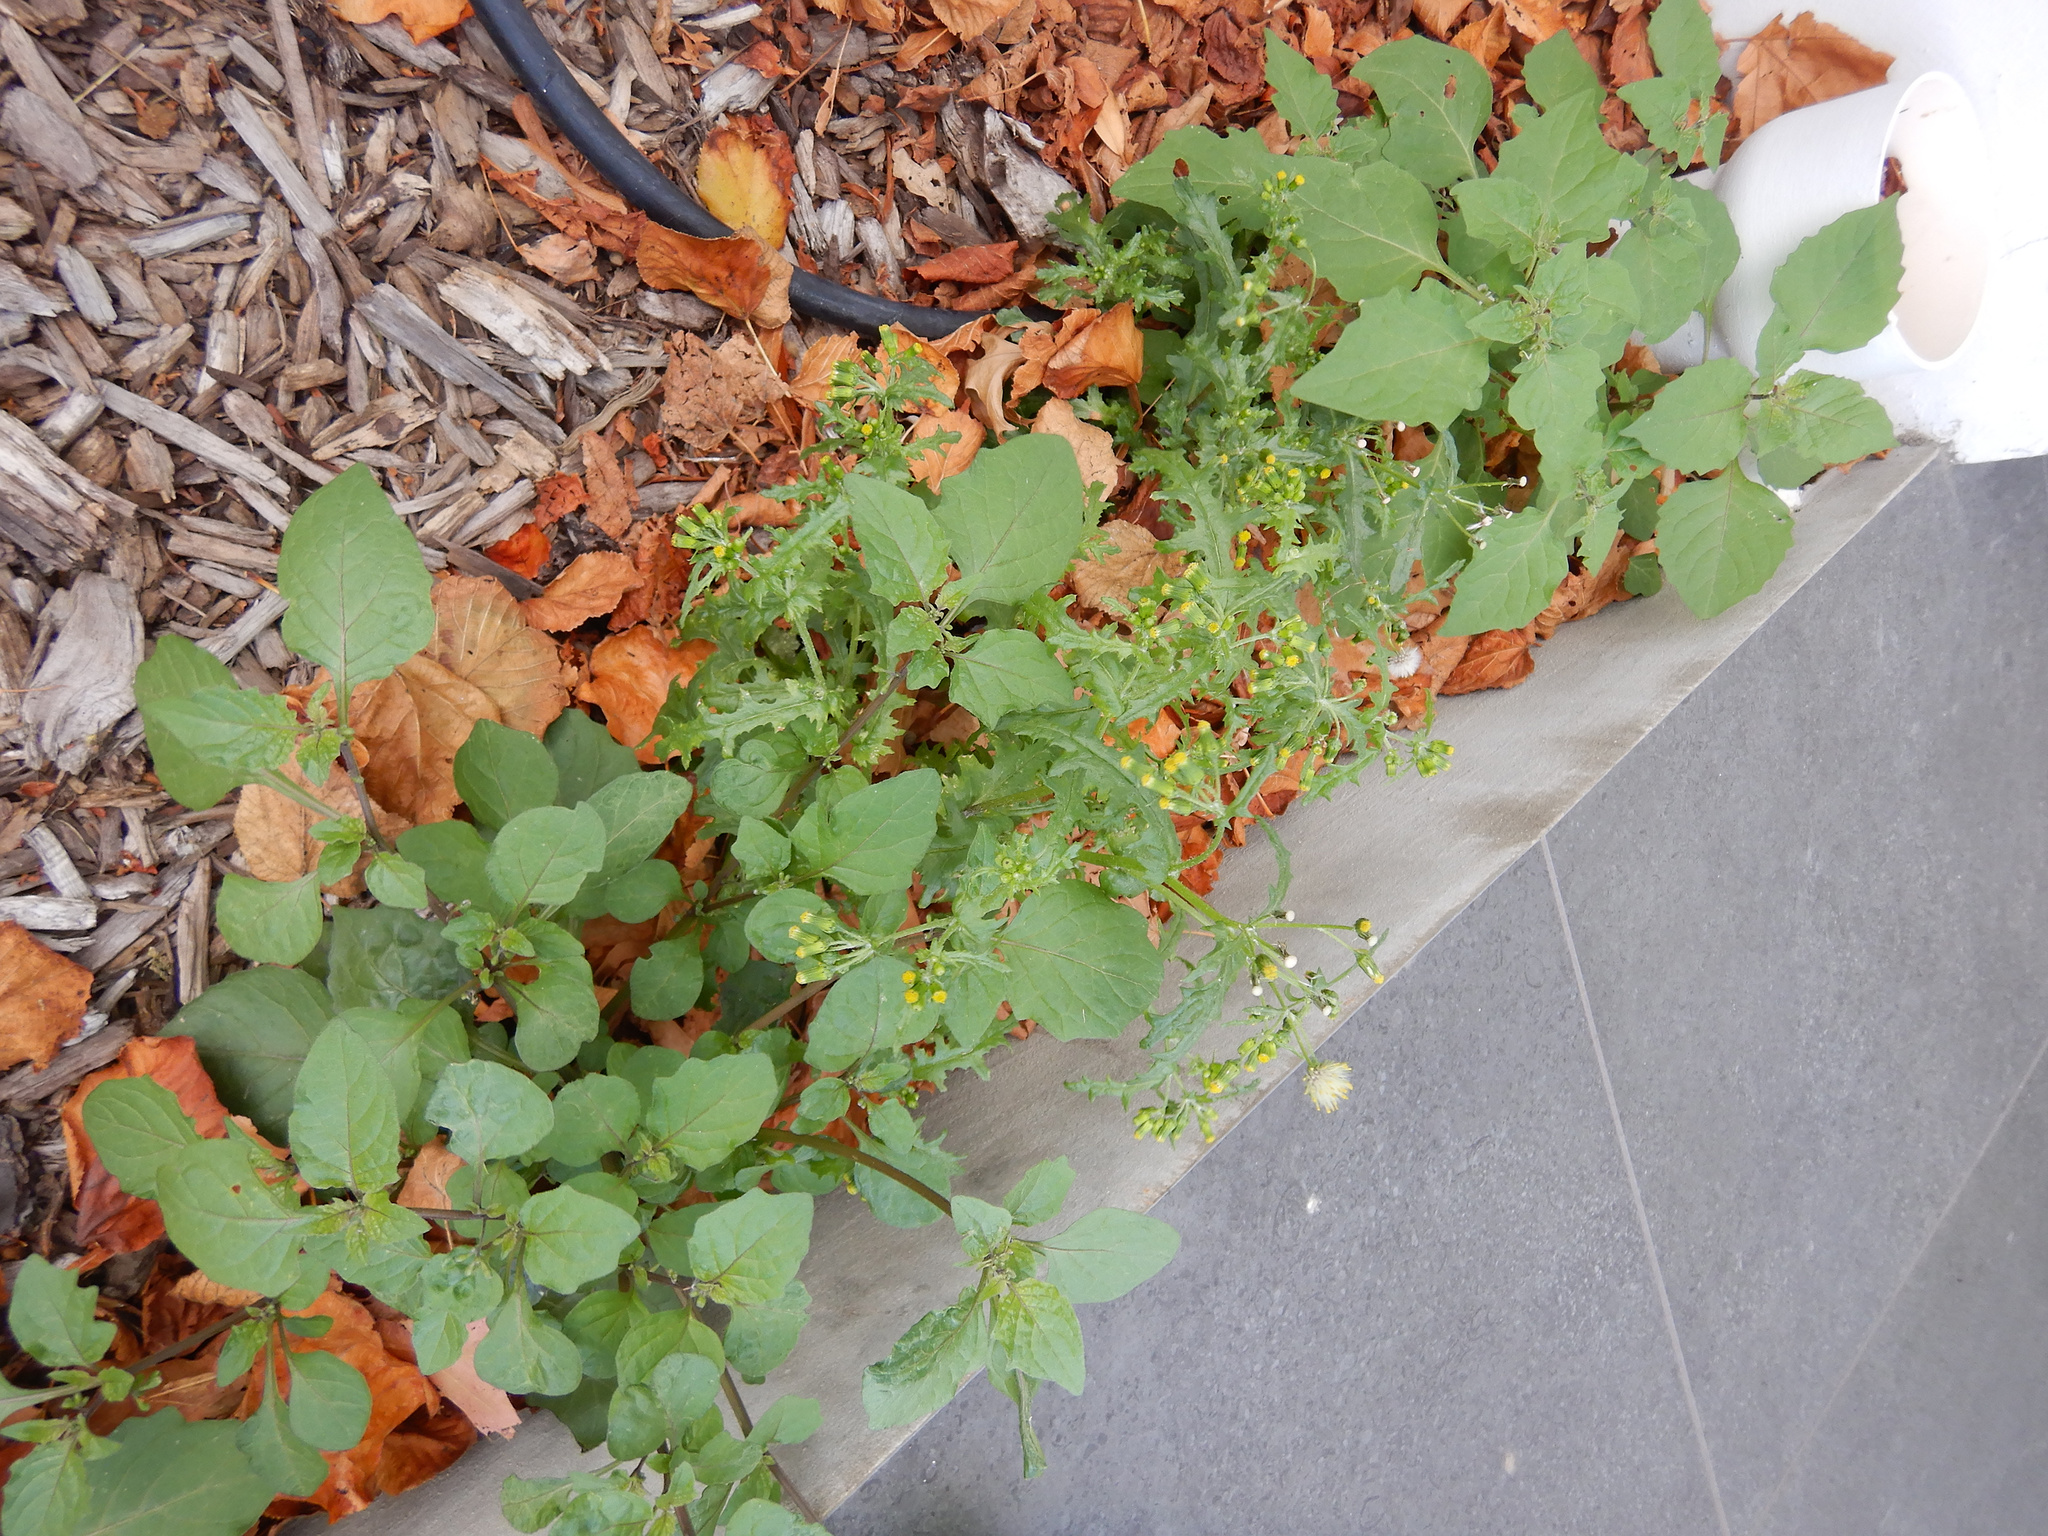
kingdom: Plantae
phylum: Tracheophyta
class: Magnoliopsida
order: Asterales
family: Asteraceae
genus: Senecio
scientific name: Senecio vulgaris
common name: Old-man-in-the-spring
